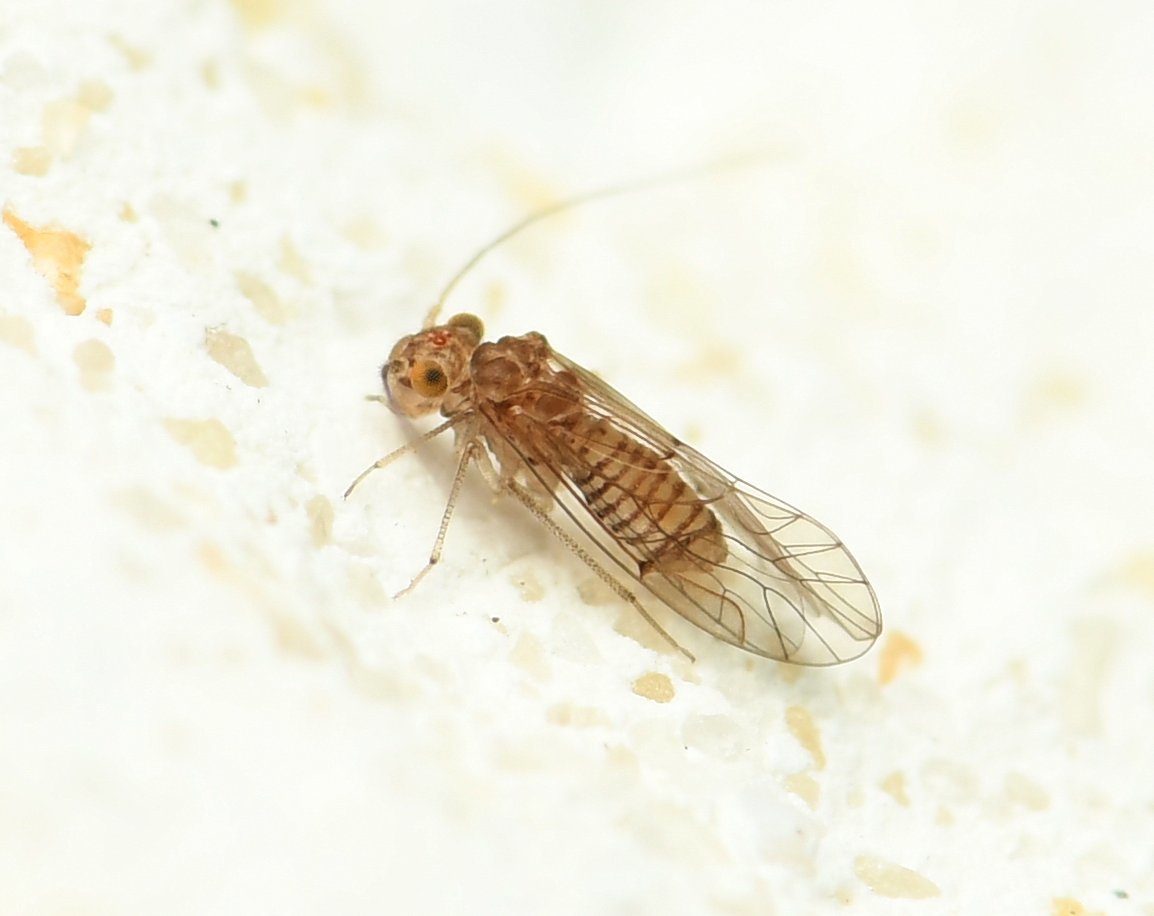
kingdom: Animalia
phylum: Arthropoda
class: Insecta
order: Psocodea
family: Lachesillidae
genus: Lachesilla
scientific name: Lachesilla anna
